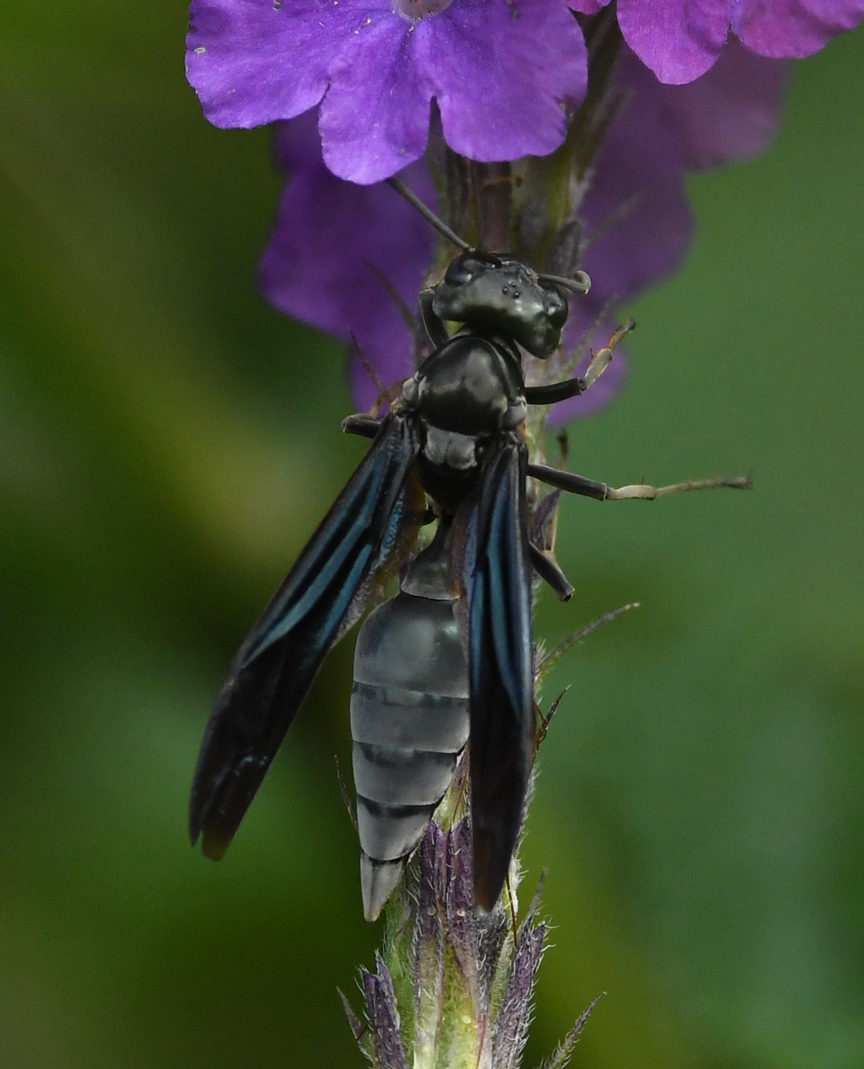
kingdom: Animalia
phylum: Arthropoda
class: Insecta
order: Hymenoptera
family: Vespidae
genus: Synoeca
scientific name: Synoeca septentrionalis
